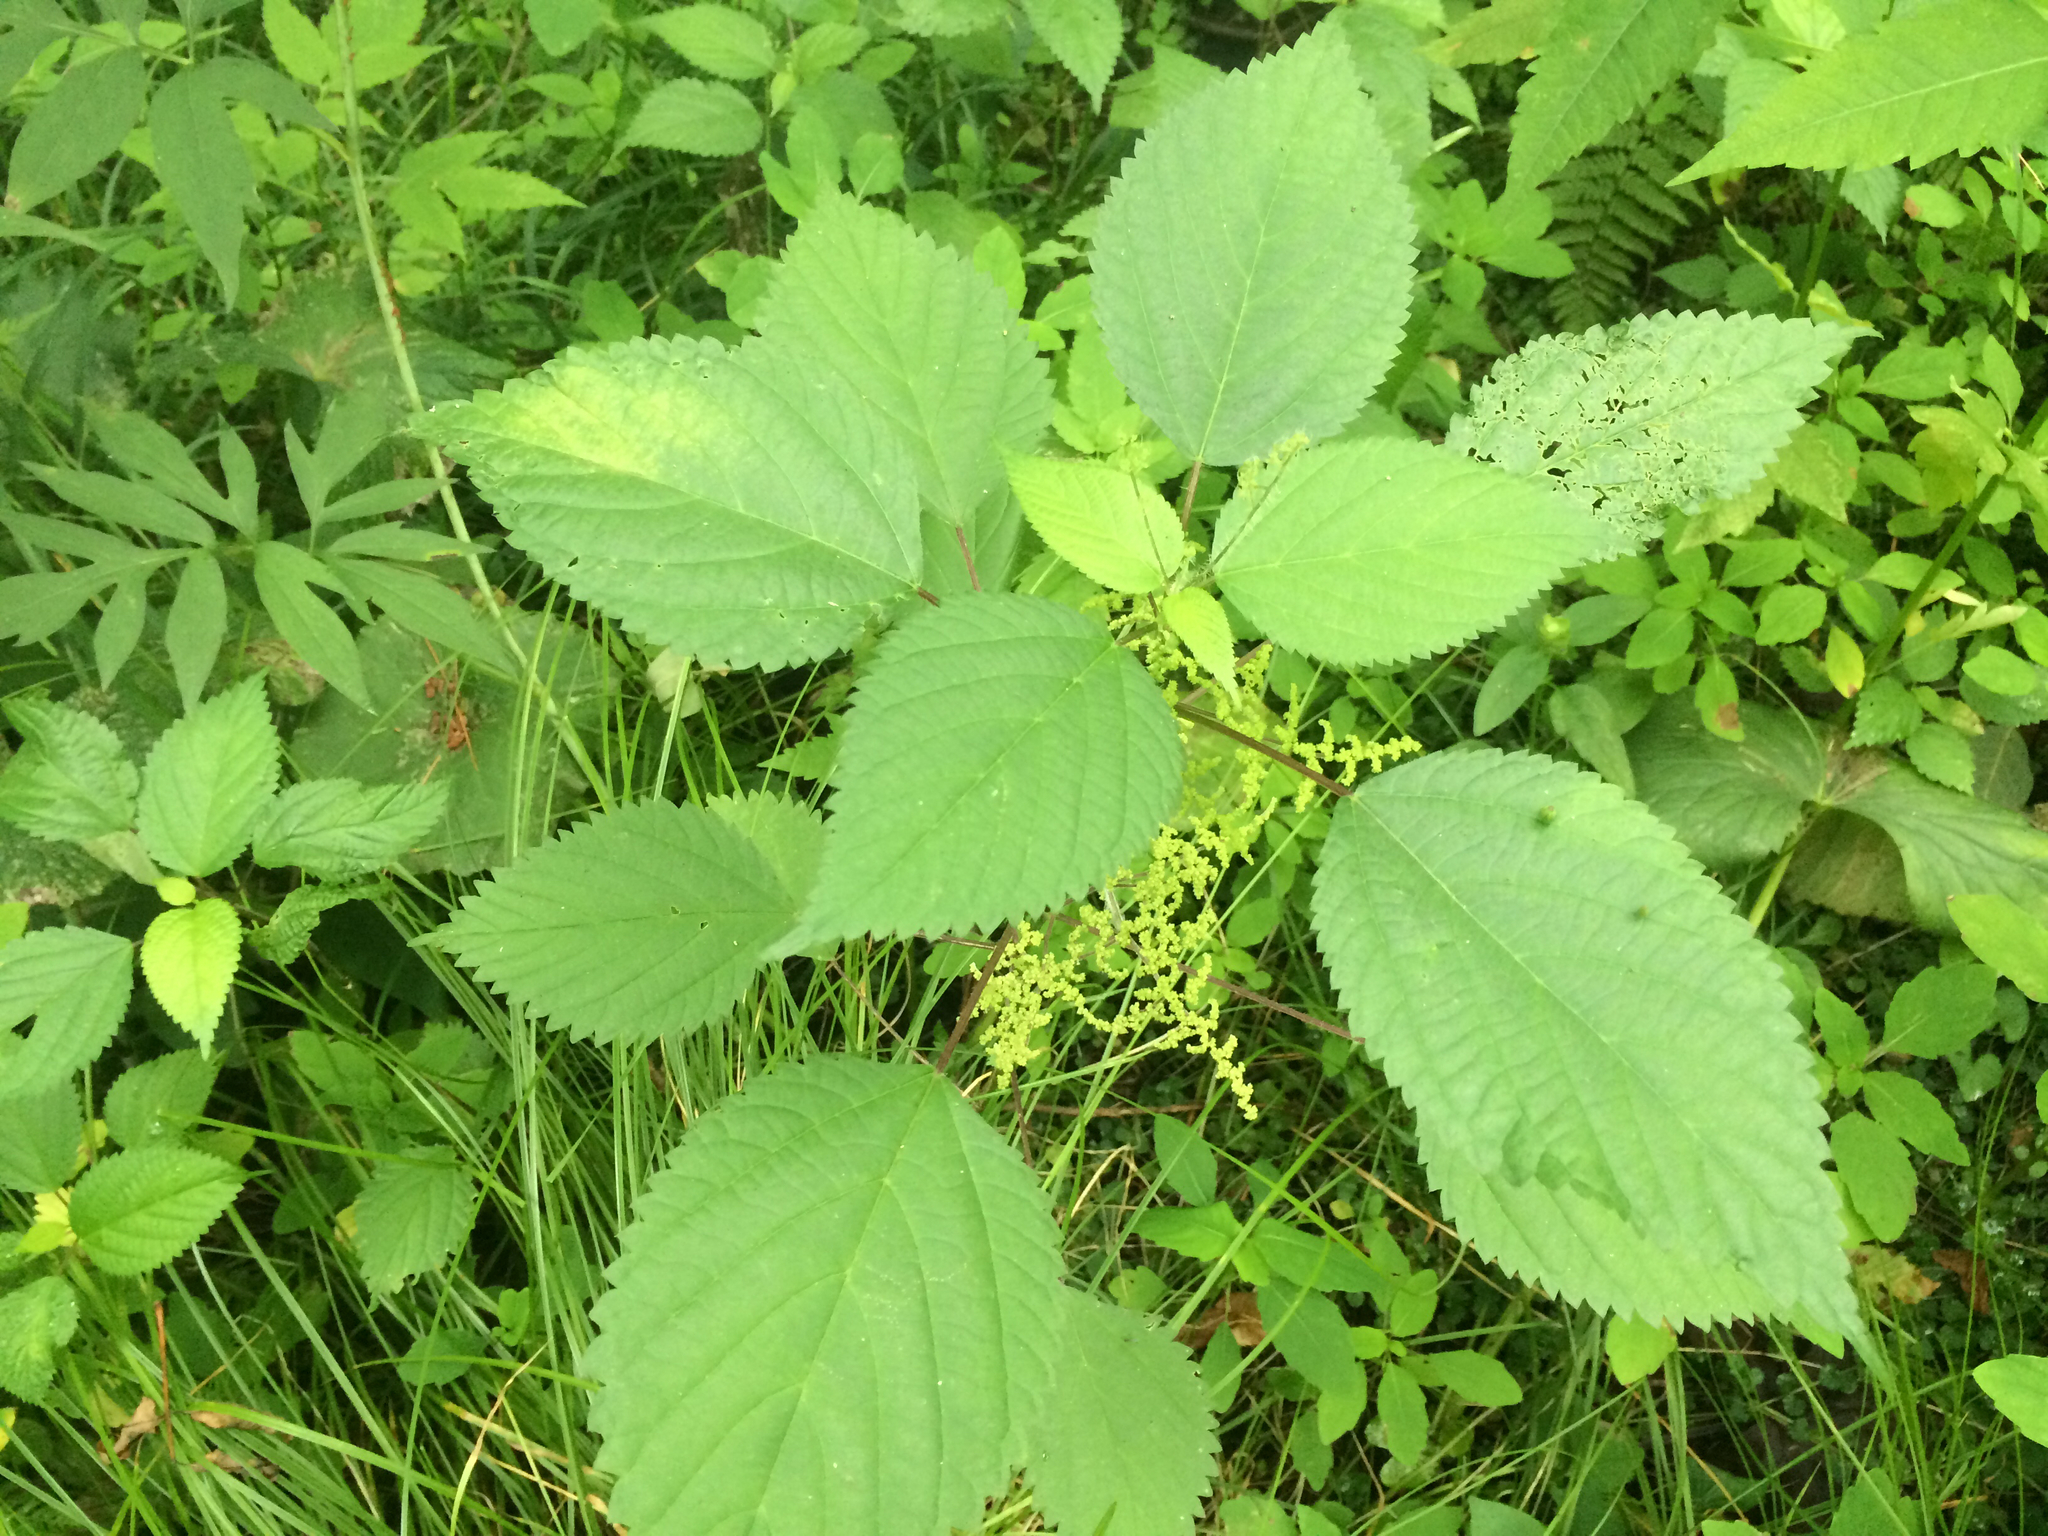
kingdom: Plantae
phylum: Tracheophyta
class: Magnoliopsida
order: Rosales
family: Urticaceae
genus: Laportea
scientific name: Laportea canadensis
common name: Canada nettle
